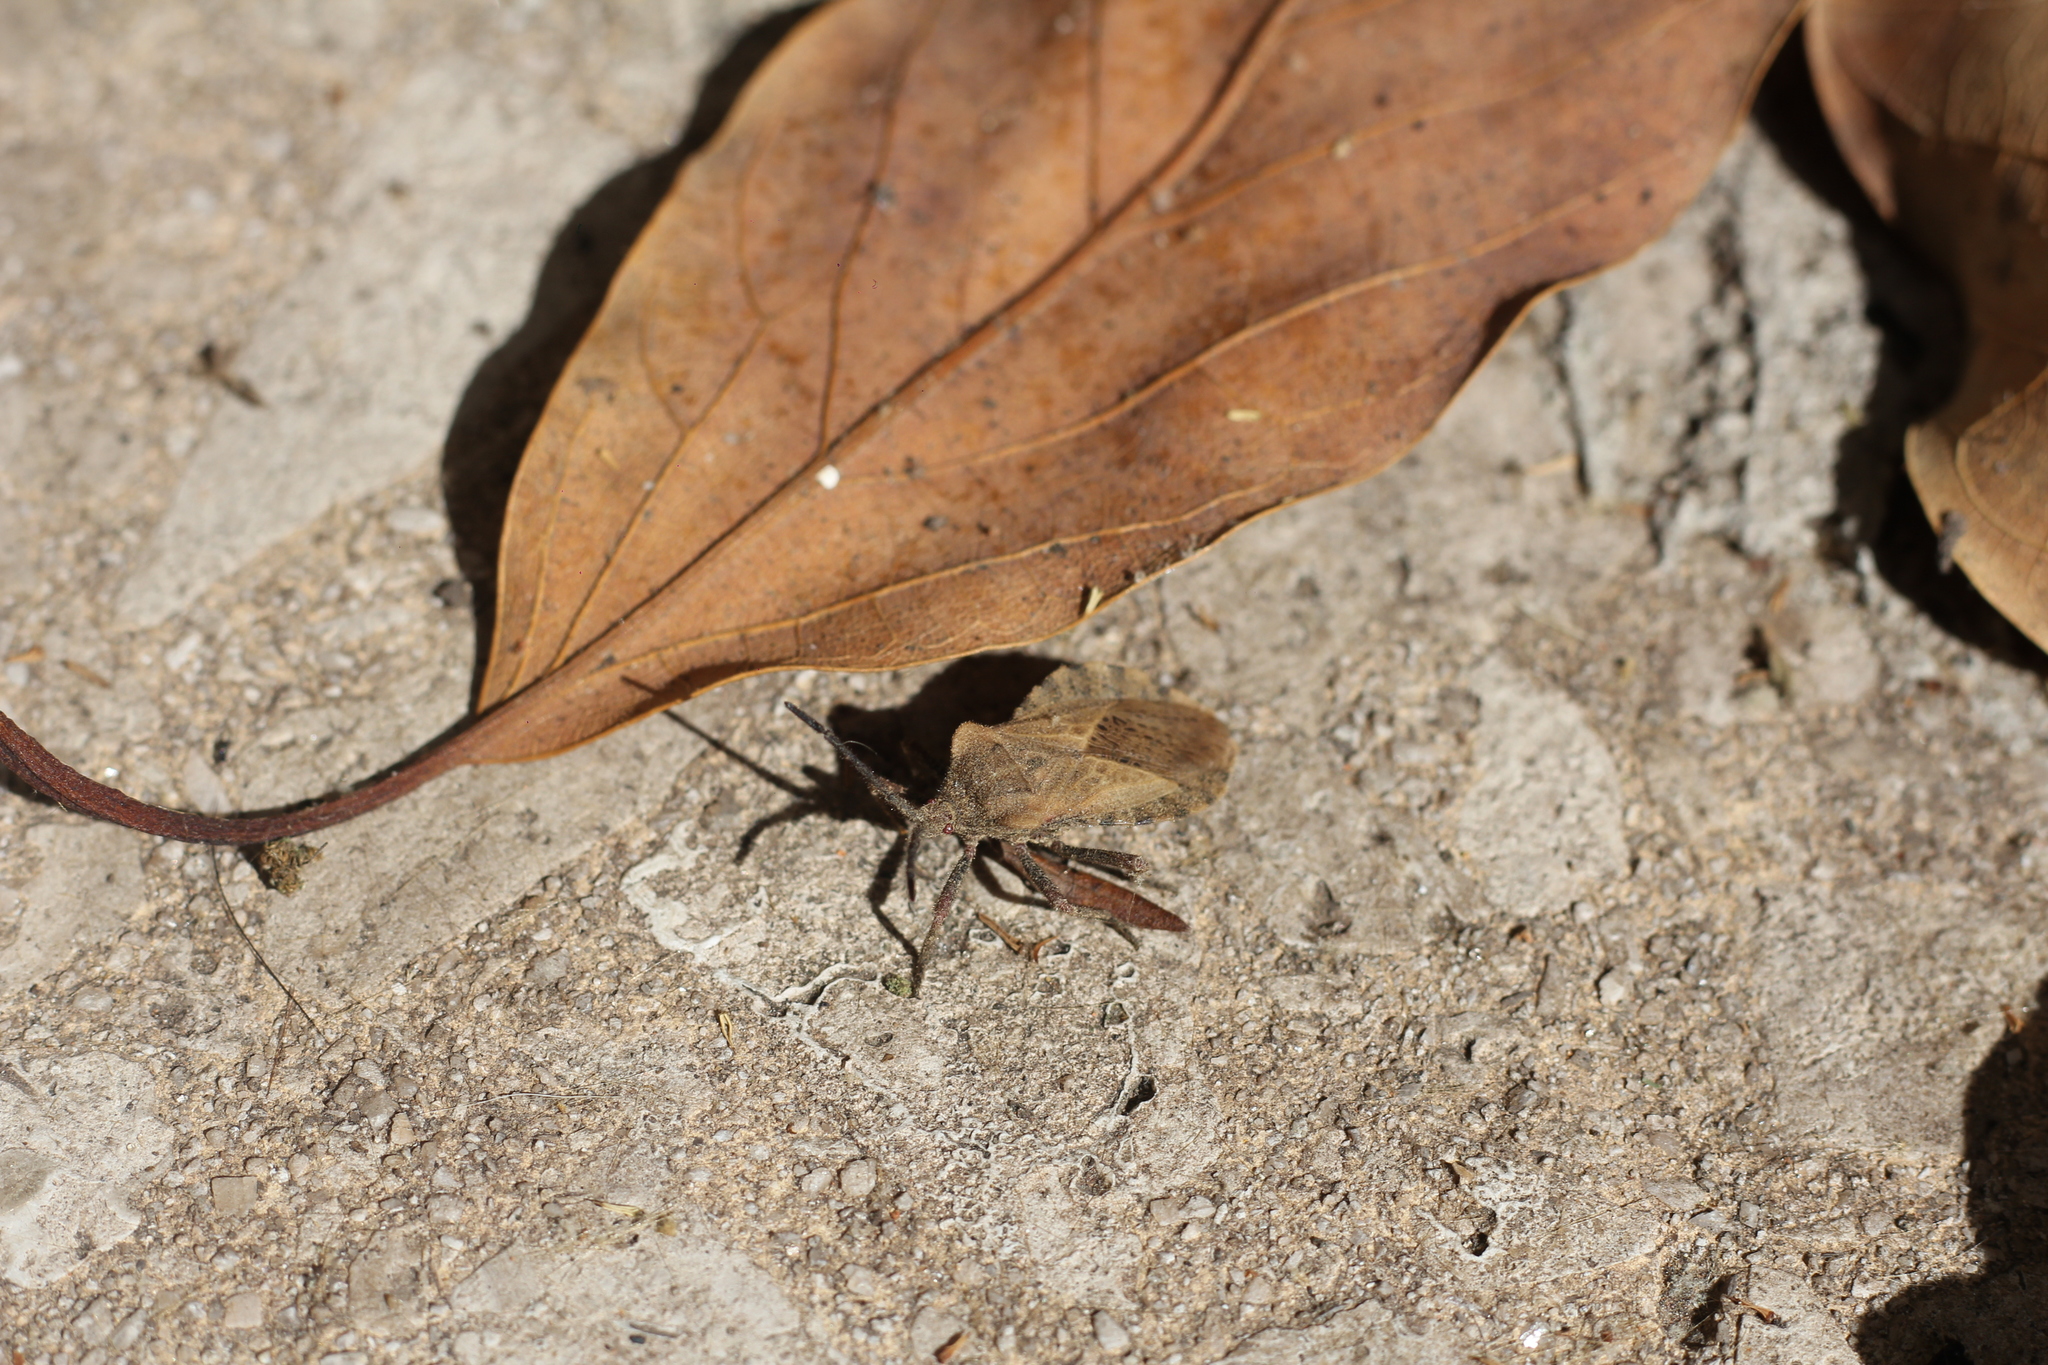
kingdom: Animalia
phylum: Arthropoda
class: Insecta
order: Hemiptera
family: Coreidae
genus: Spartocera
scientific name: Spartocera fusca
